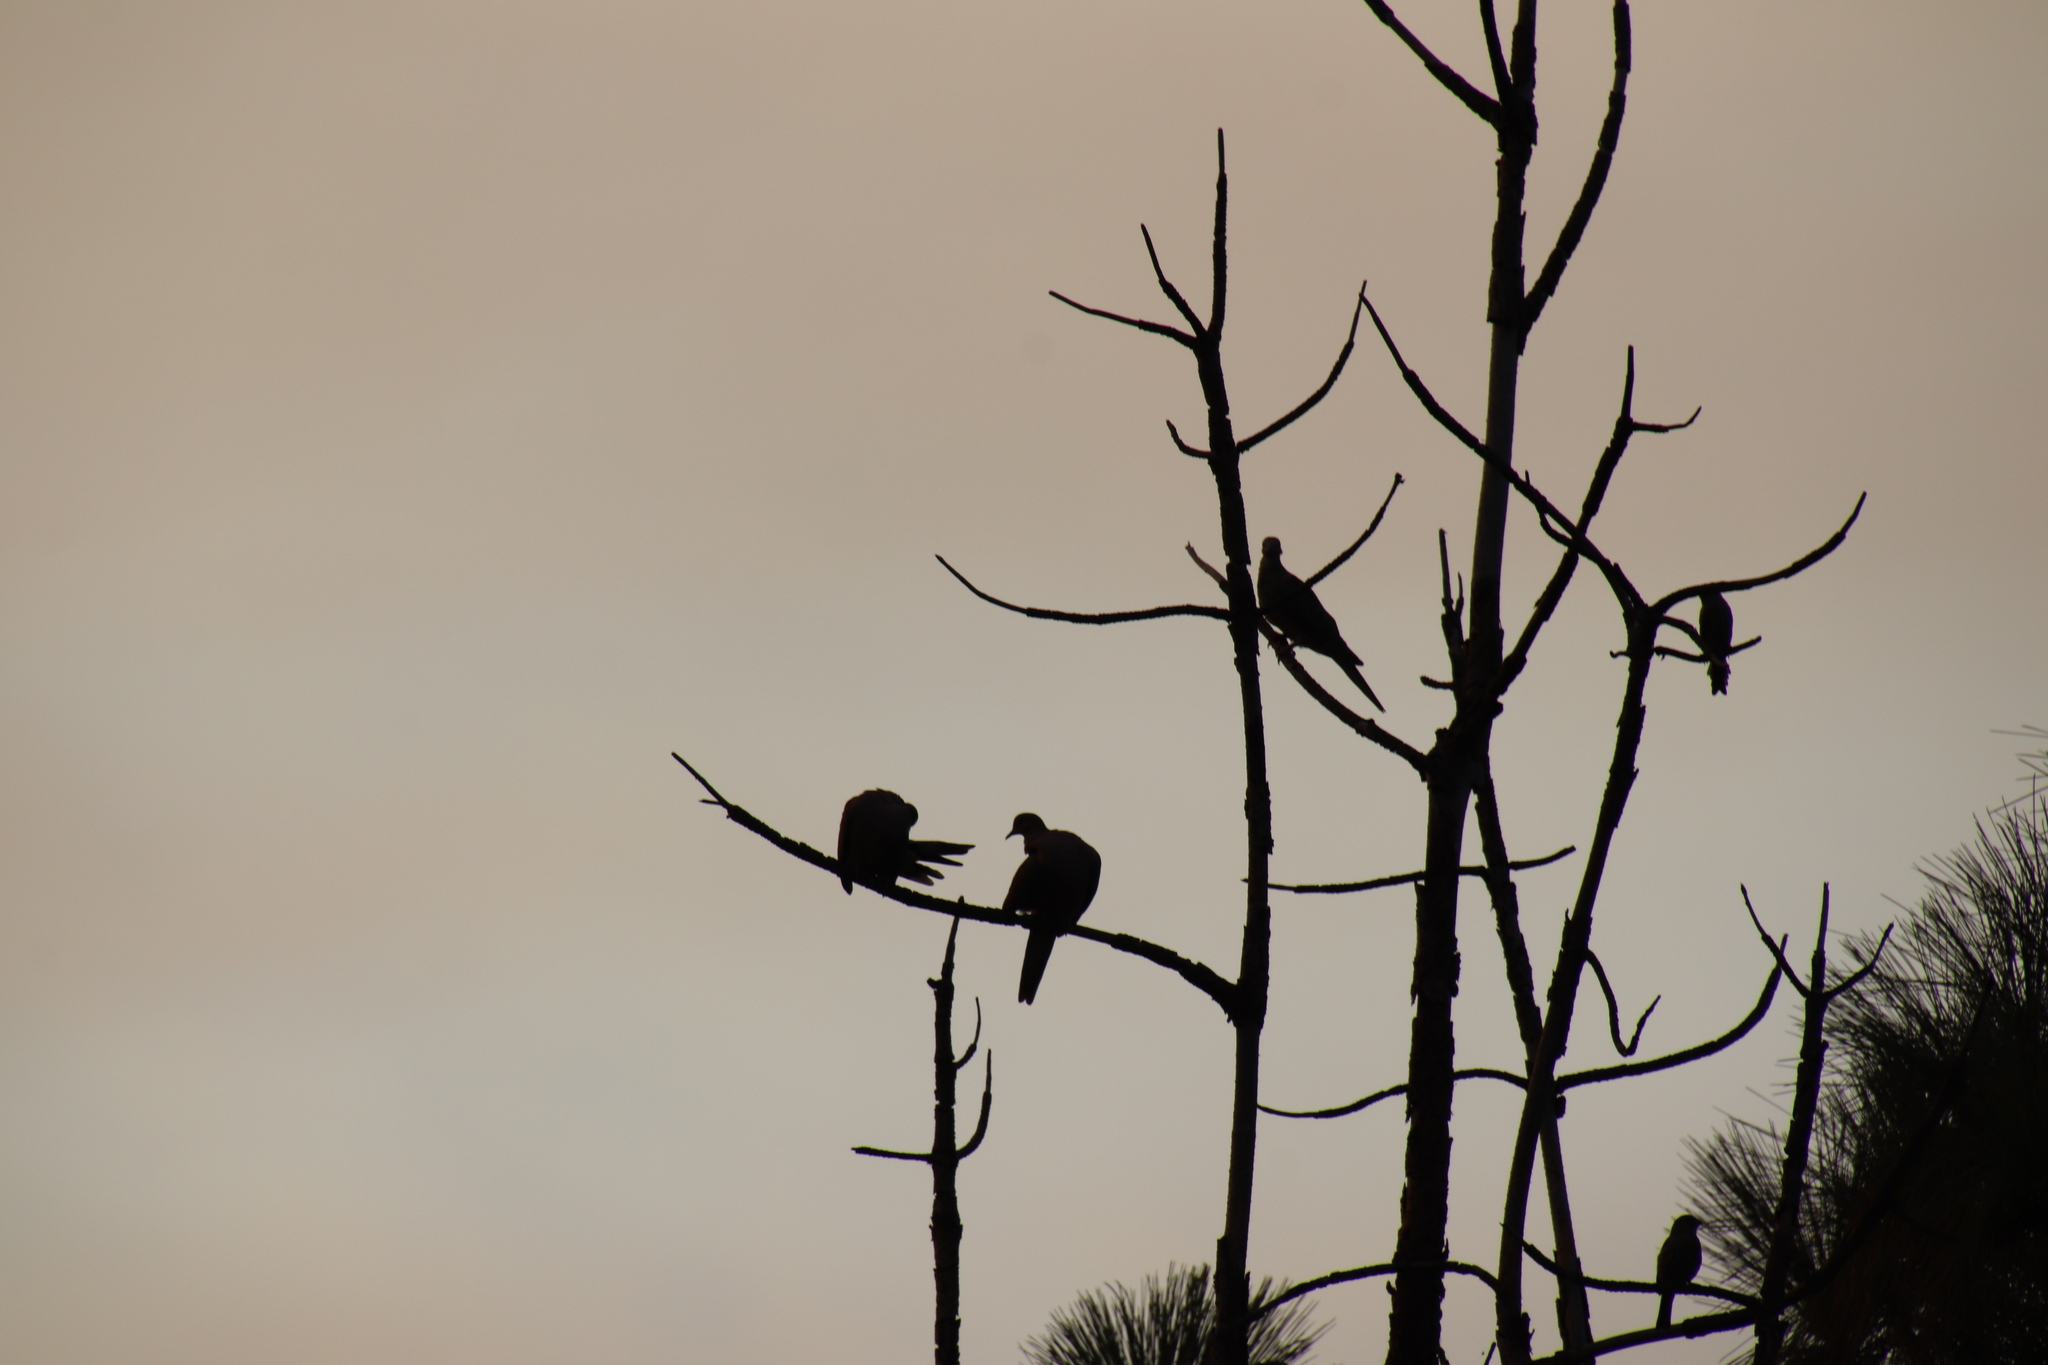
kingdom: Animalia
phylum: Chordata
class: Aves
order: Columbiformes
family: Columbidae
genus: Zenaida
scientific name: Zenaida macroura
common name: Mourning dove
